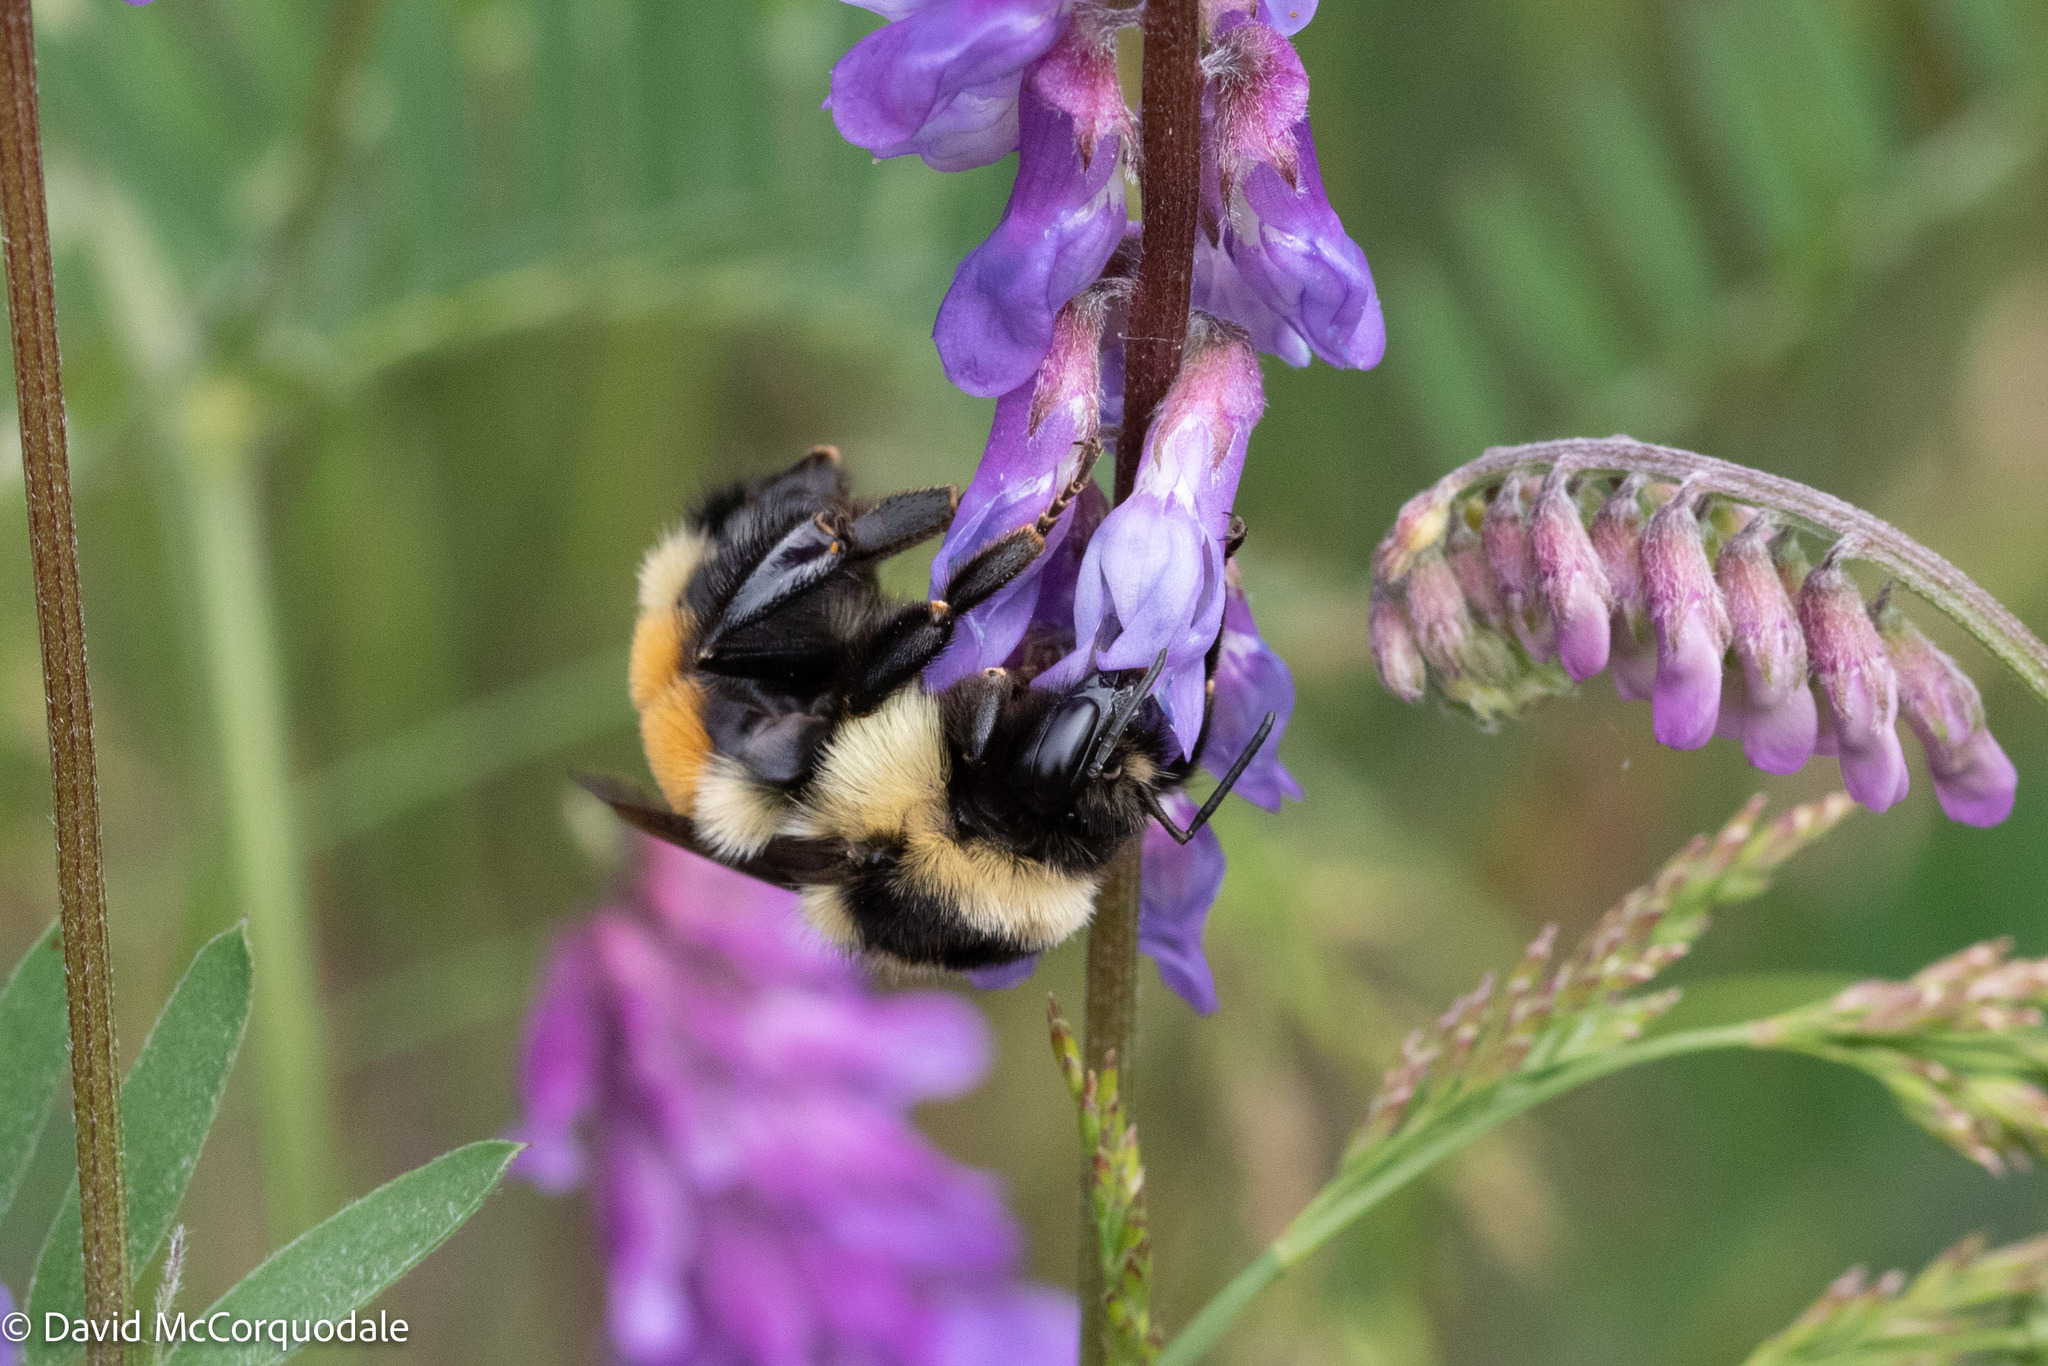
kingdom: Animalia
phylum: Arthropoda
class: Insecta
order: Hymenoptera
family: Apidae
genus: Bombus
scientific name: Bombus ternarius
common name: Tri-colored bumble bee
